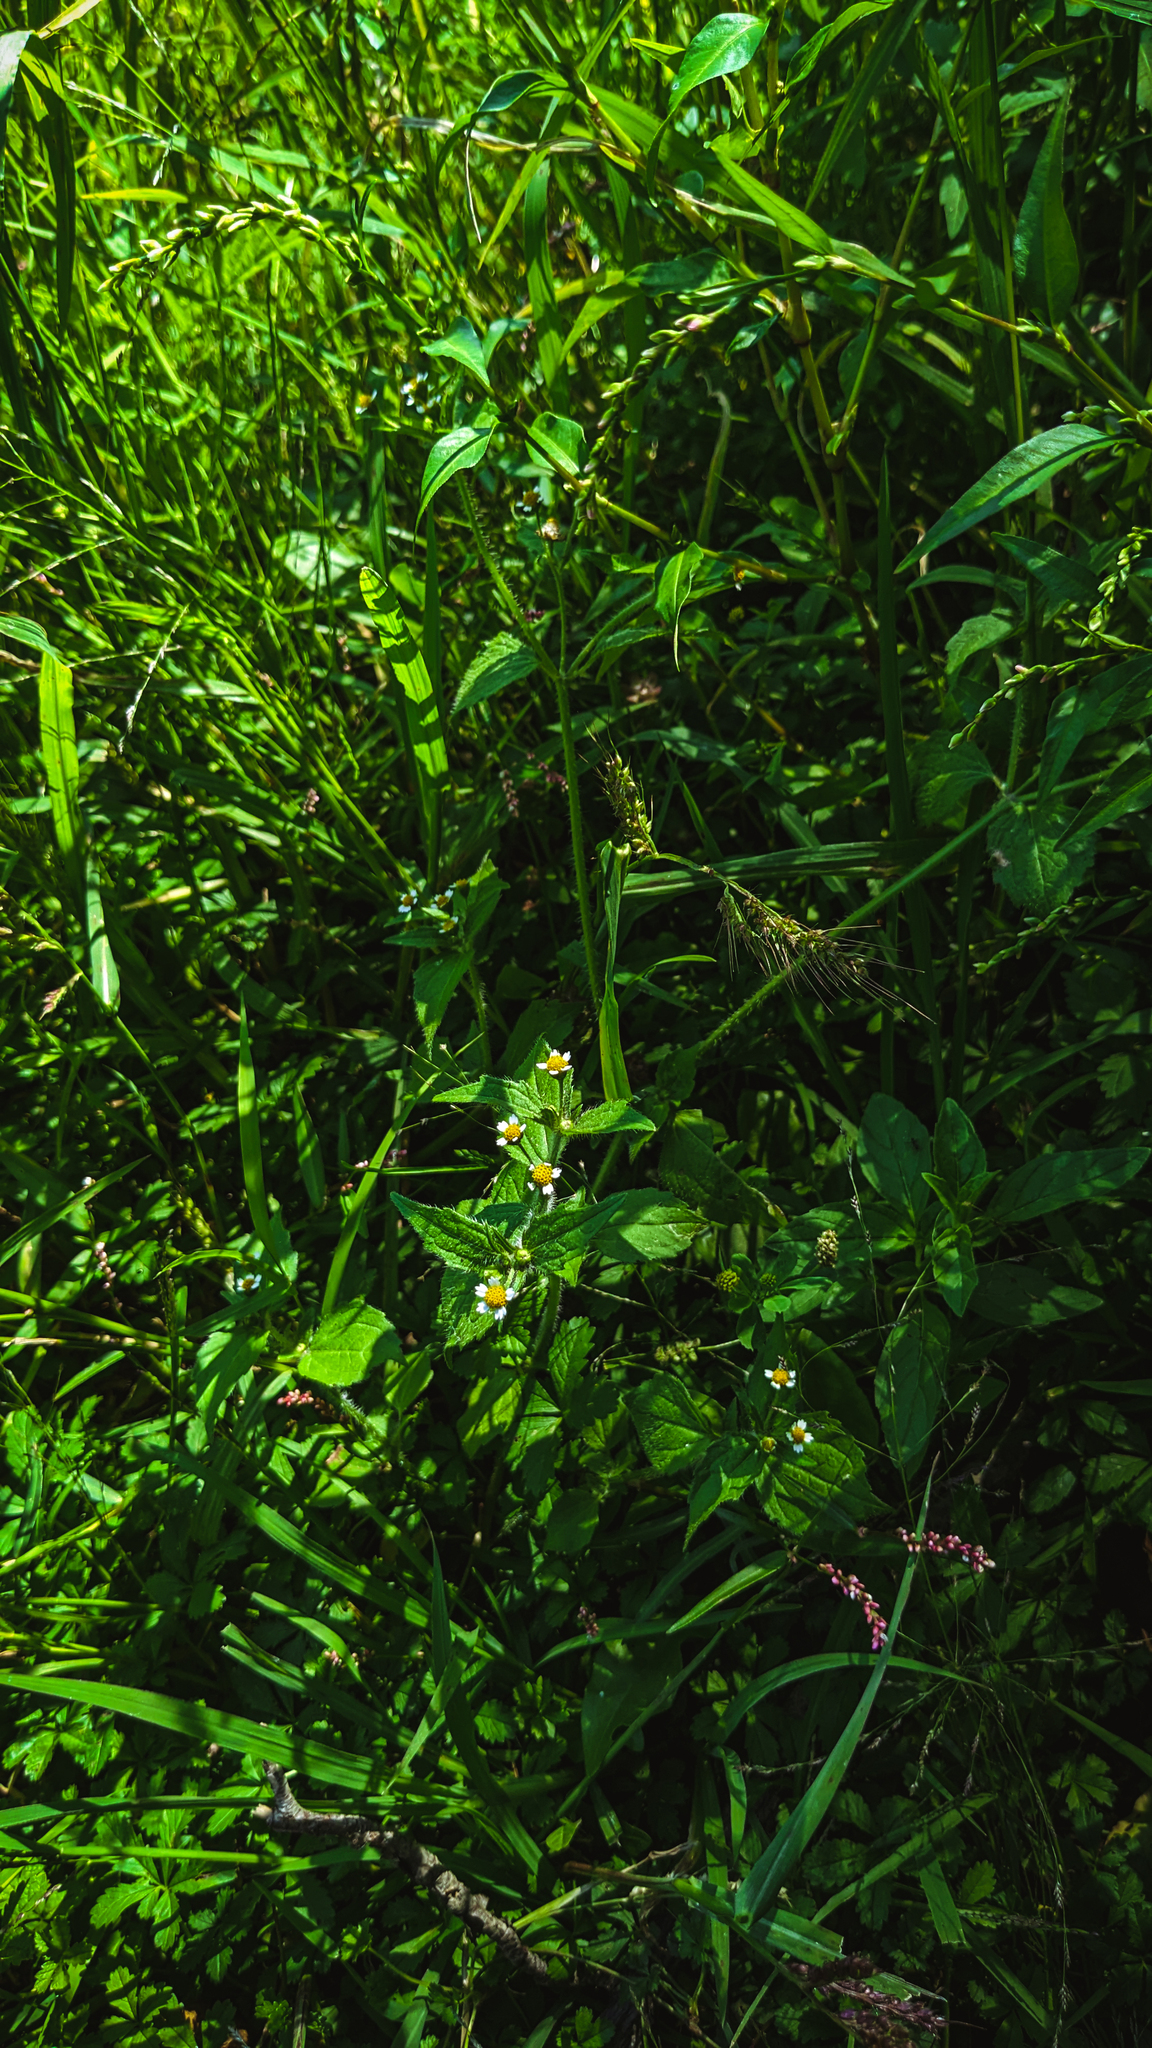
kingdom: Plantae
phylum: Tracheophyta
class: Magnoliopsida
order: Asterales
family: Asteraceae
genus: Galinsoga
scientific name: Galinsoga quadriradiata
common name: Shaggy soldier
